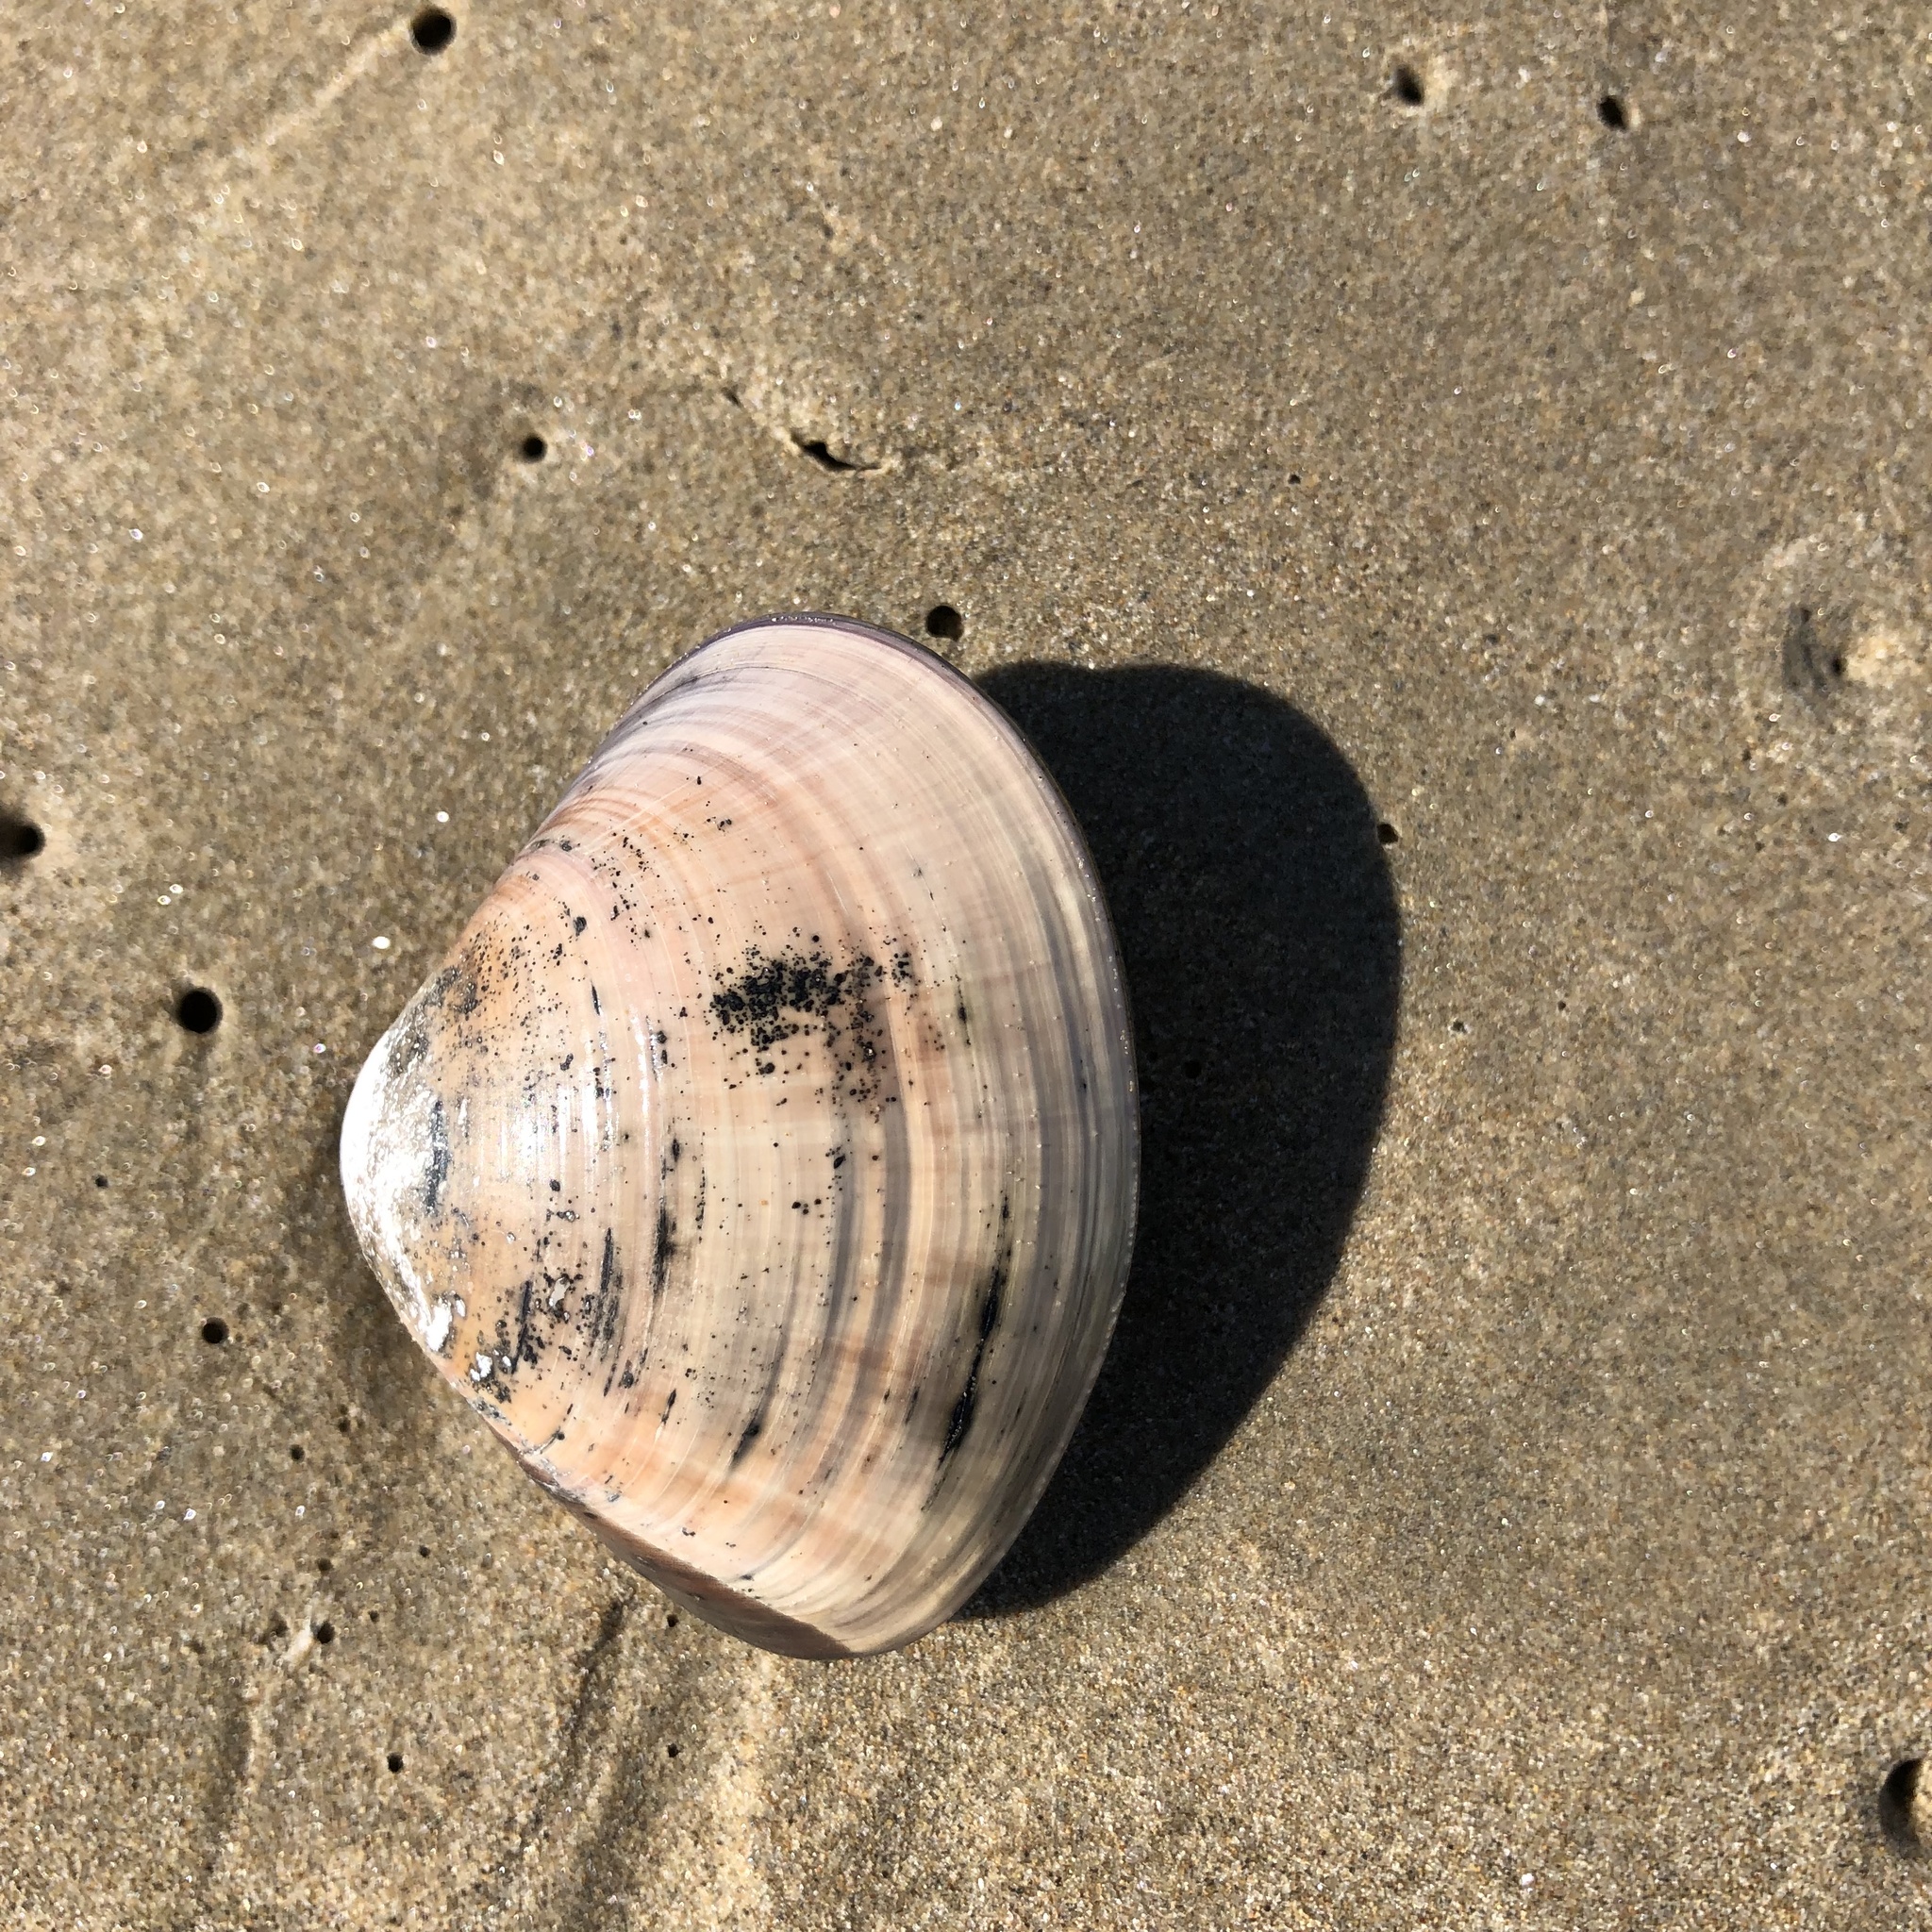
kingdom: Animalia
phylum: Mollusca
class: Bivalvia
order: Venerida
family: Veneridae
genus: Tivela
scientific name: Tivela stultorum
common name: Pismo clam
